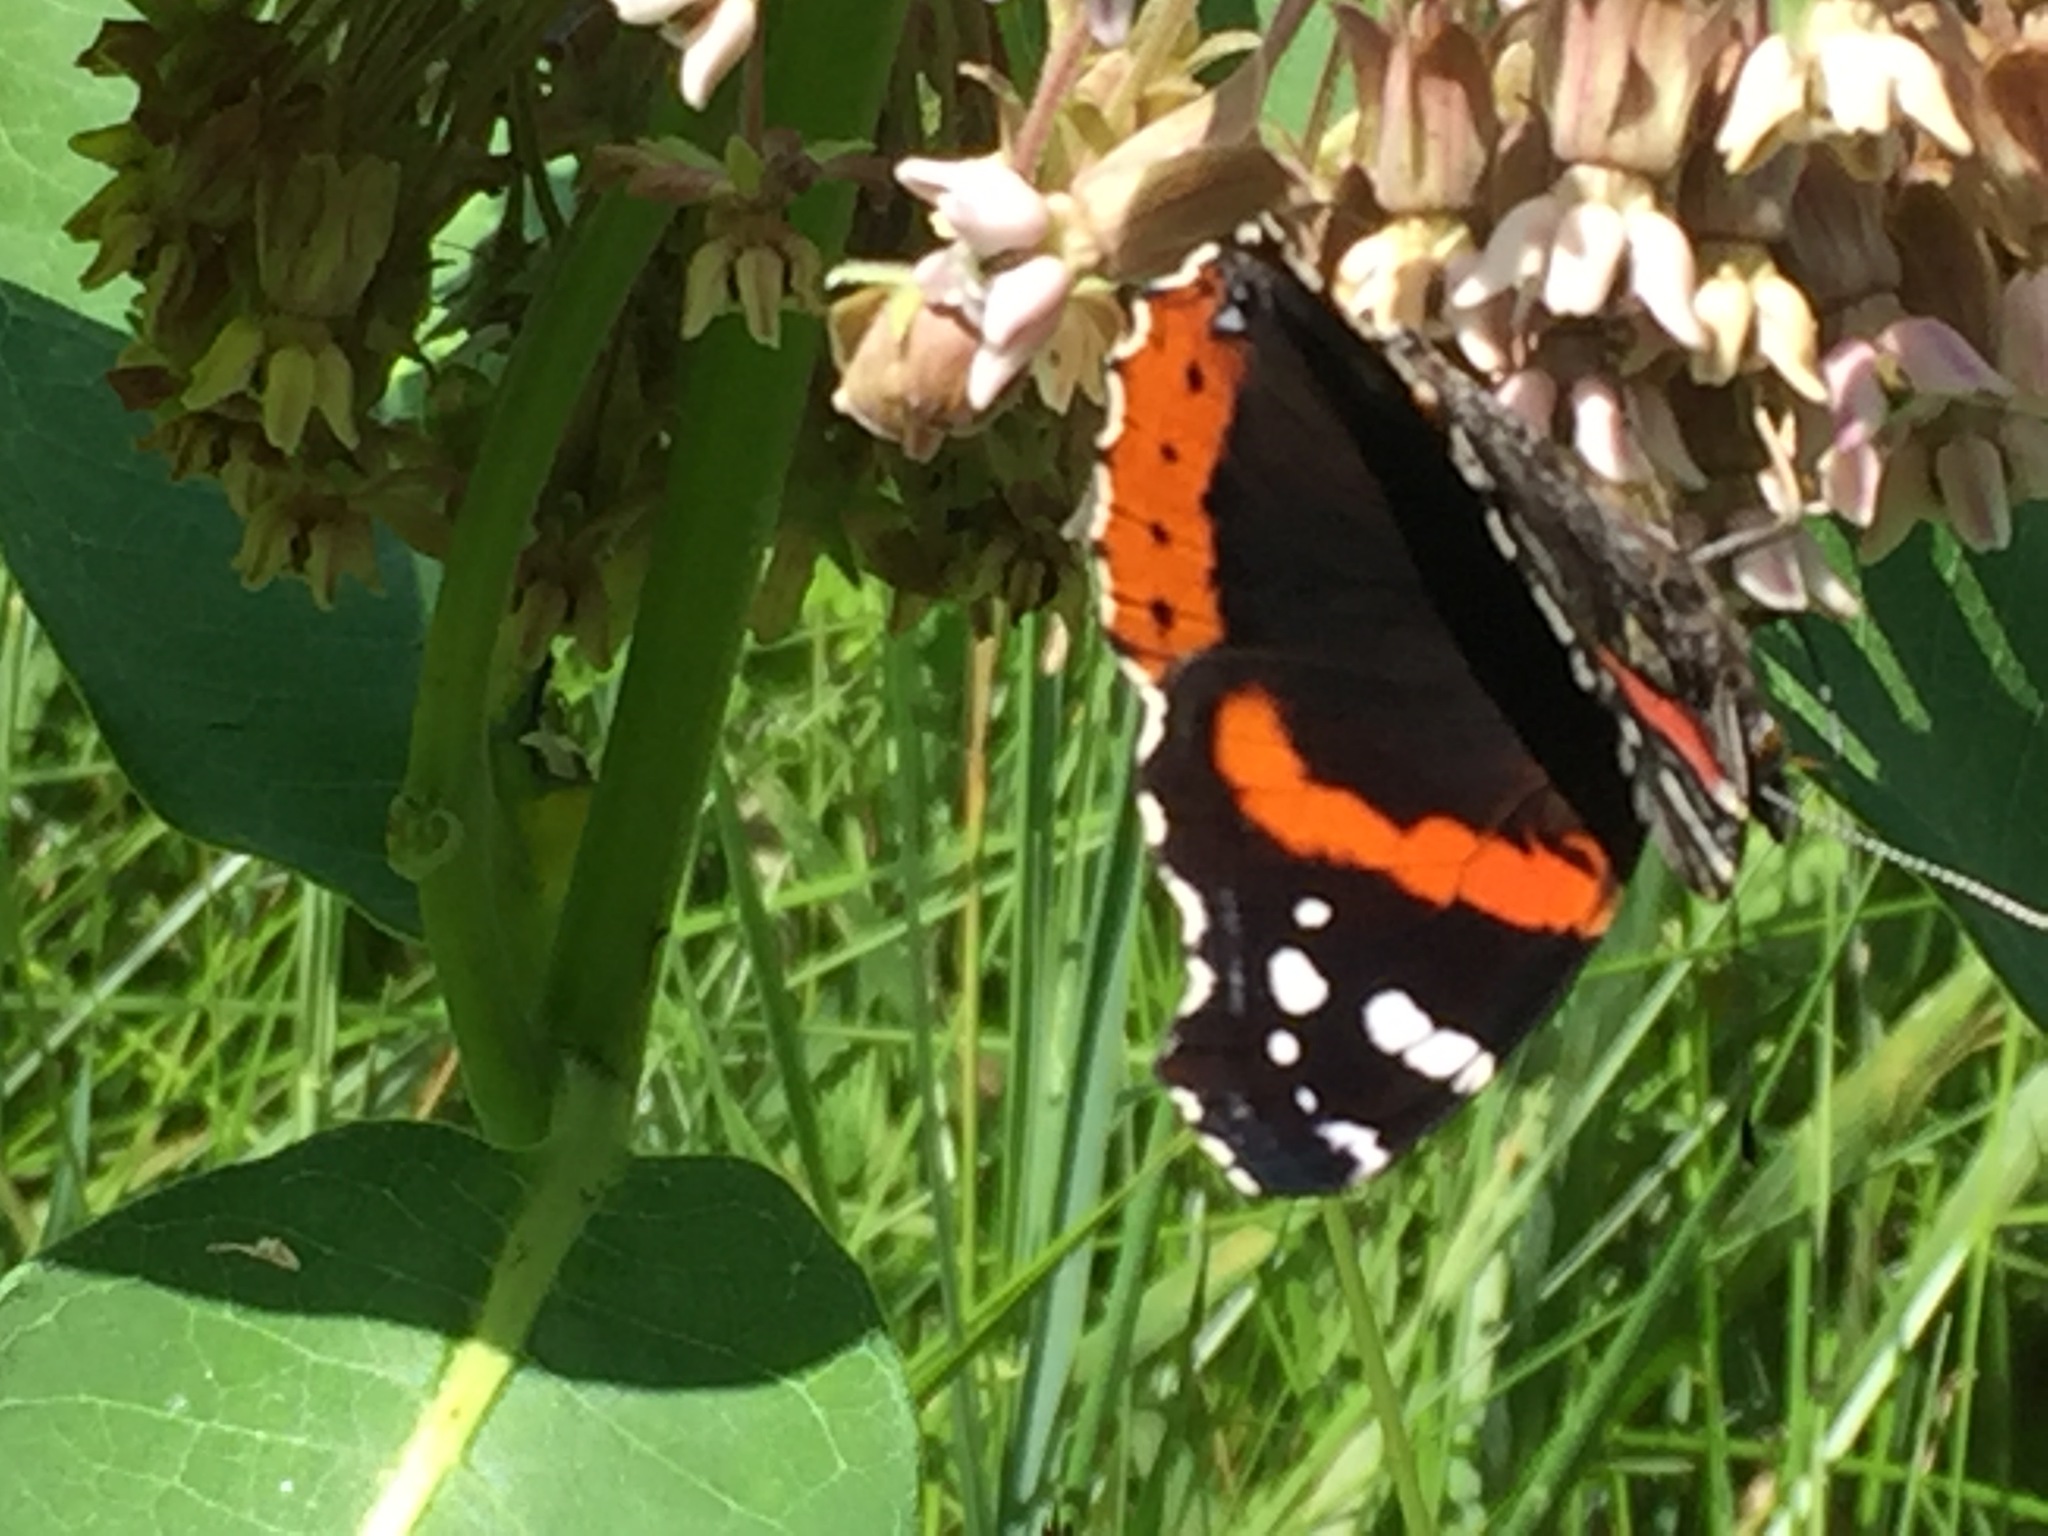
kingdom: Animalia
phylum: Arthropoda
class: Insecta
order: Lepidoptera
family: Nymphalidae
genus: Vanessa
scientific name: Vanessa atalanta
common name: Red admiral
